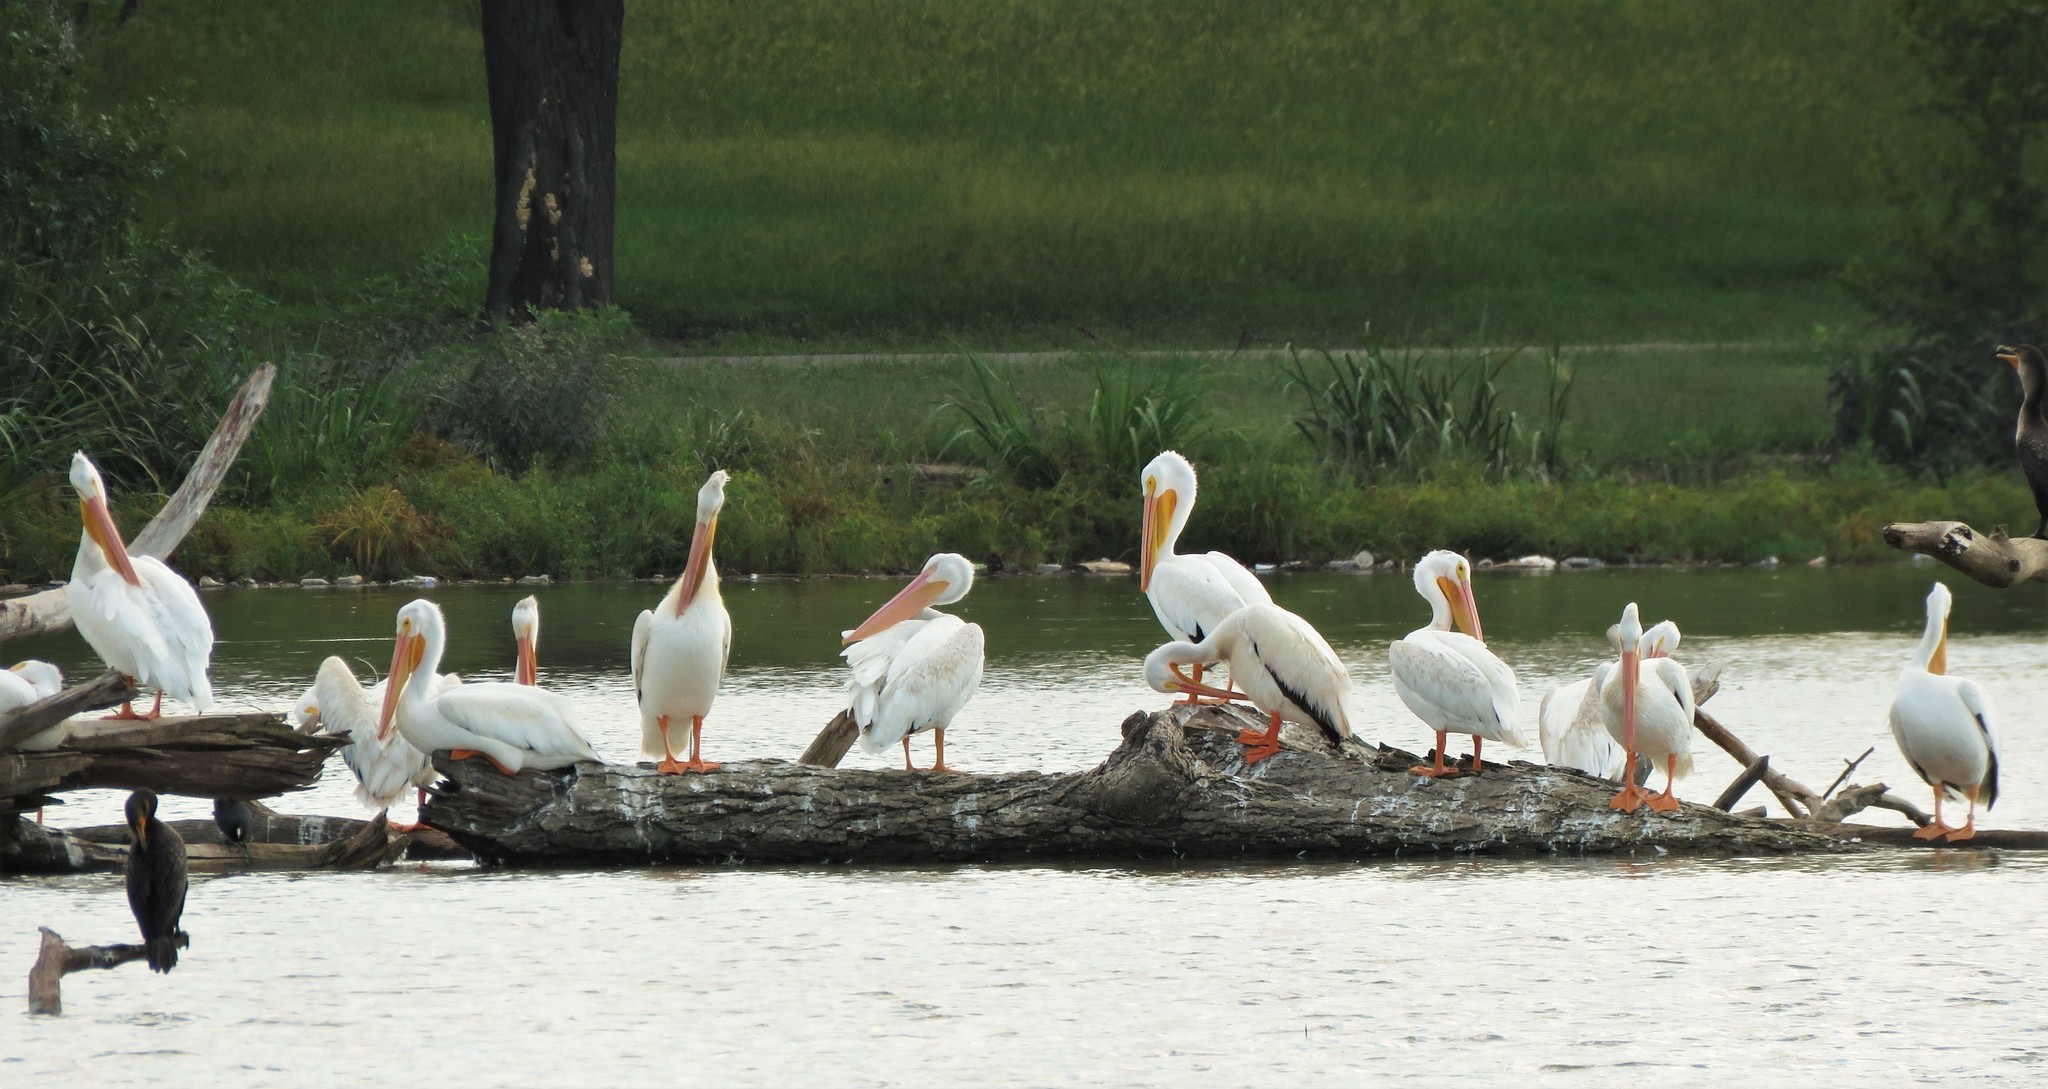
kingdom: Animalia
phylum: Chordata
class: Aves
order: Pelecaniformes
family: Pelecanidae
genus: Pelecanus
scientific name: Pelecanus erythrorhynchos
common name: American white pelican
